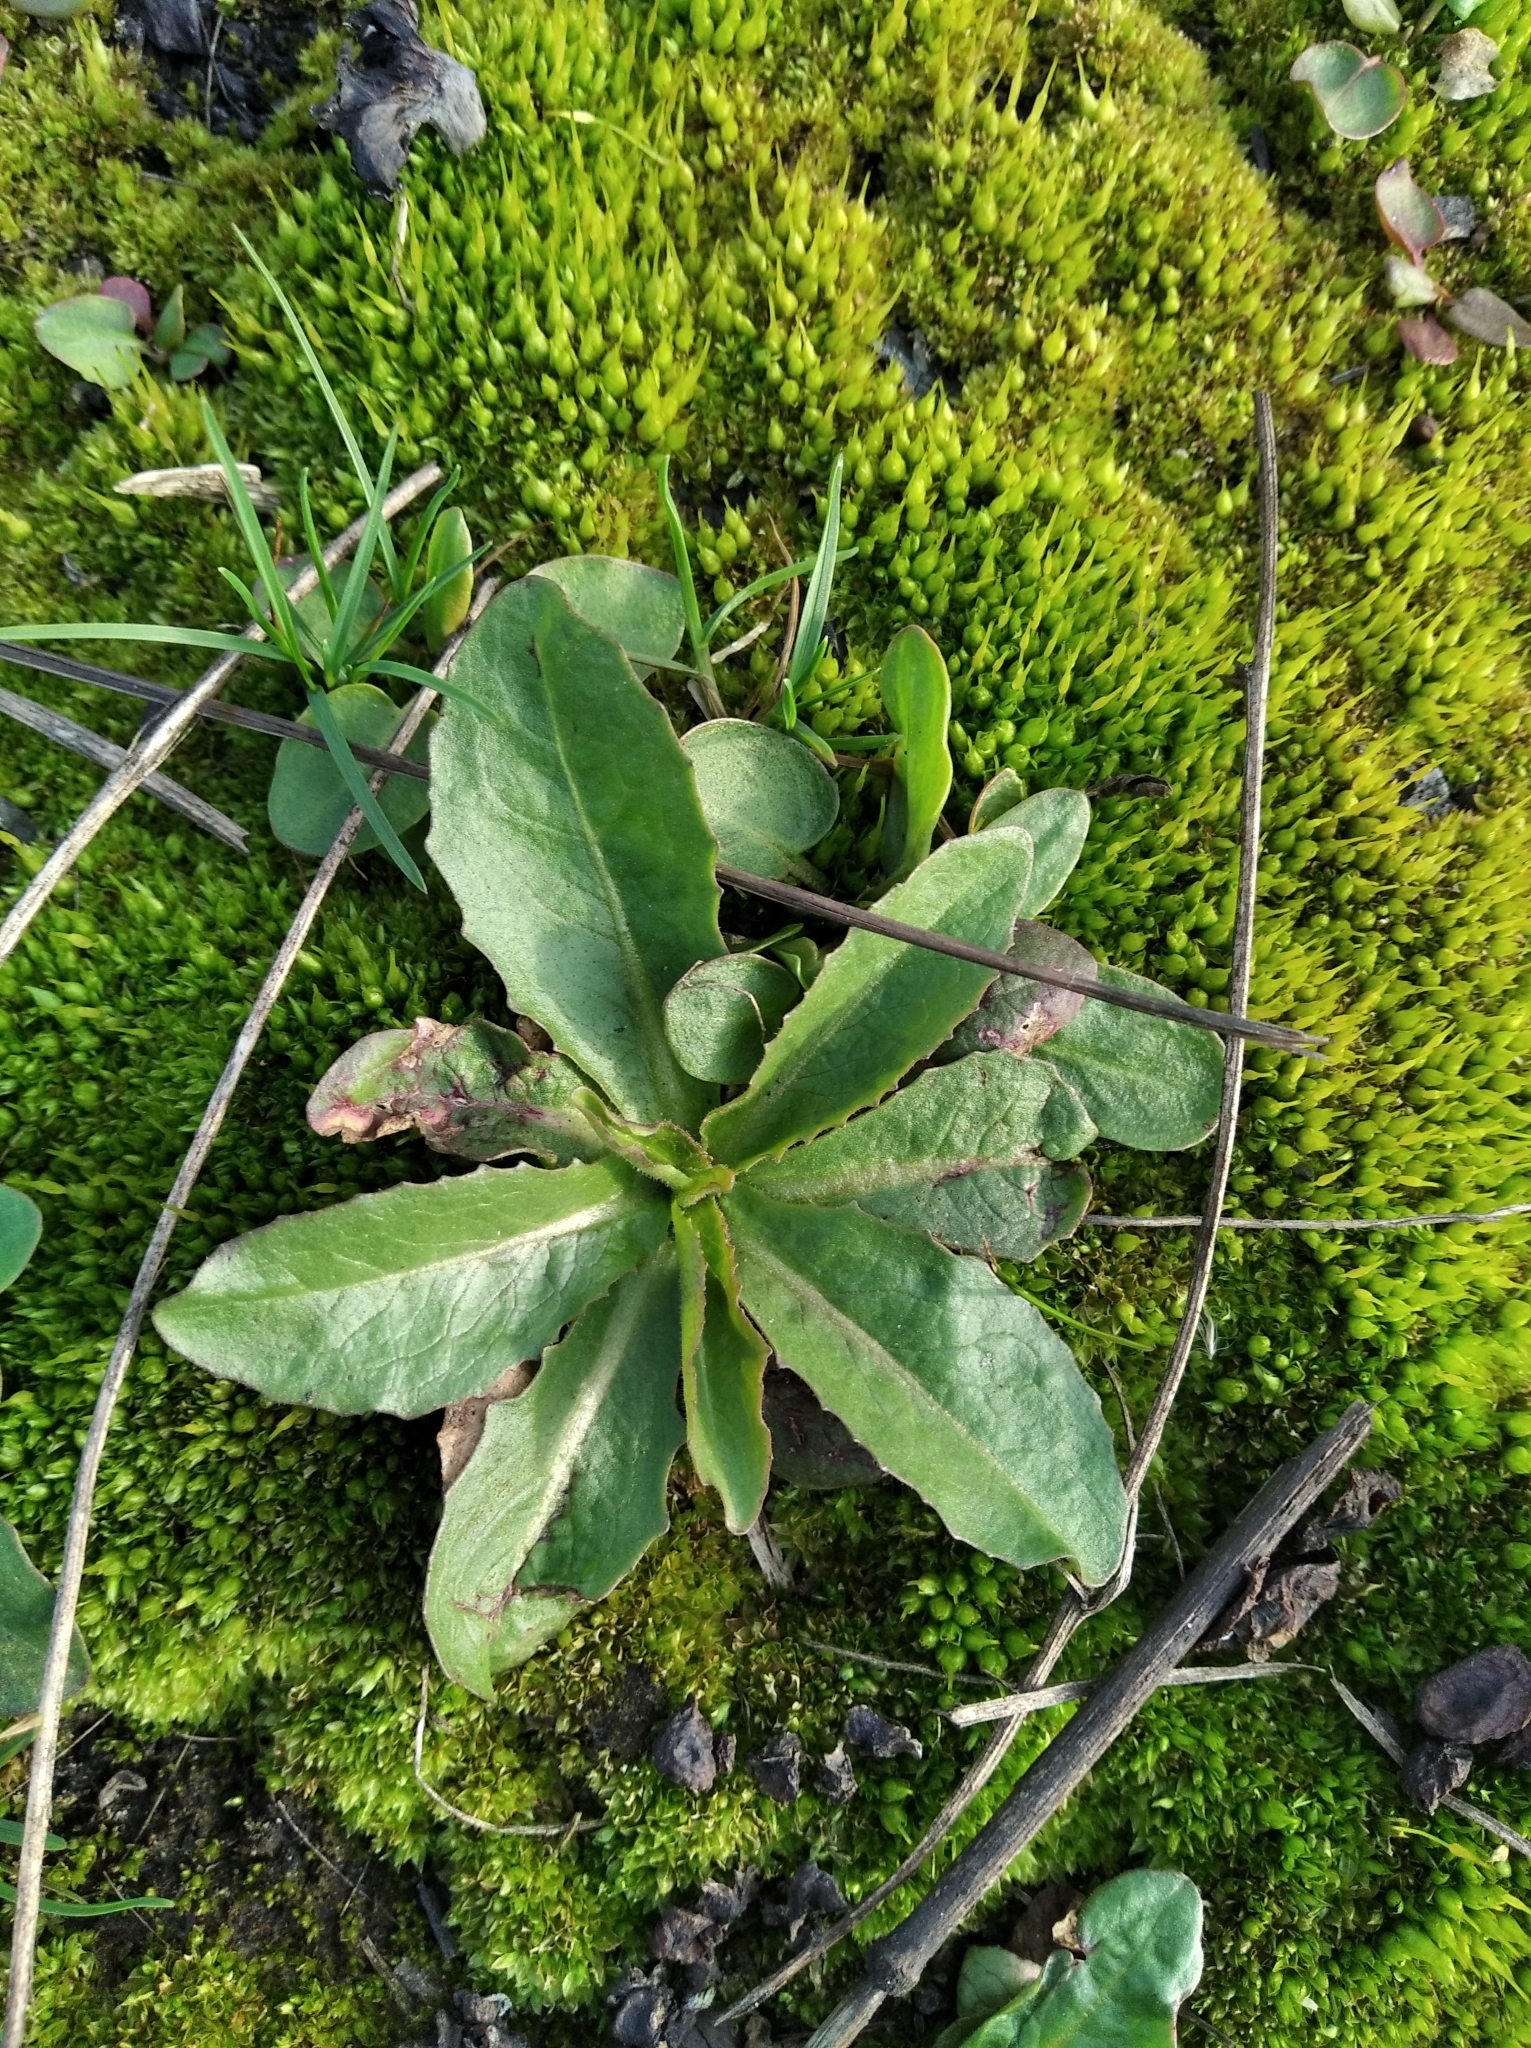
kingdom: Plantae
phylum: Tracheophyta
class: Magnoliopsida
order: Asterales
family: Asteraceae
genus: Hypochaeris
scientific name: Hypochaeris radicata
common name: Flatweed
